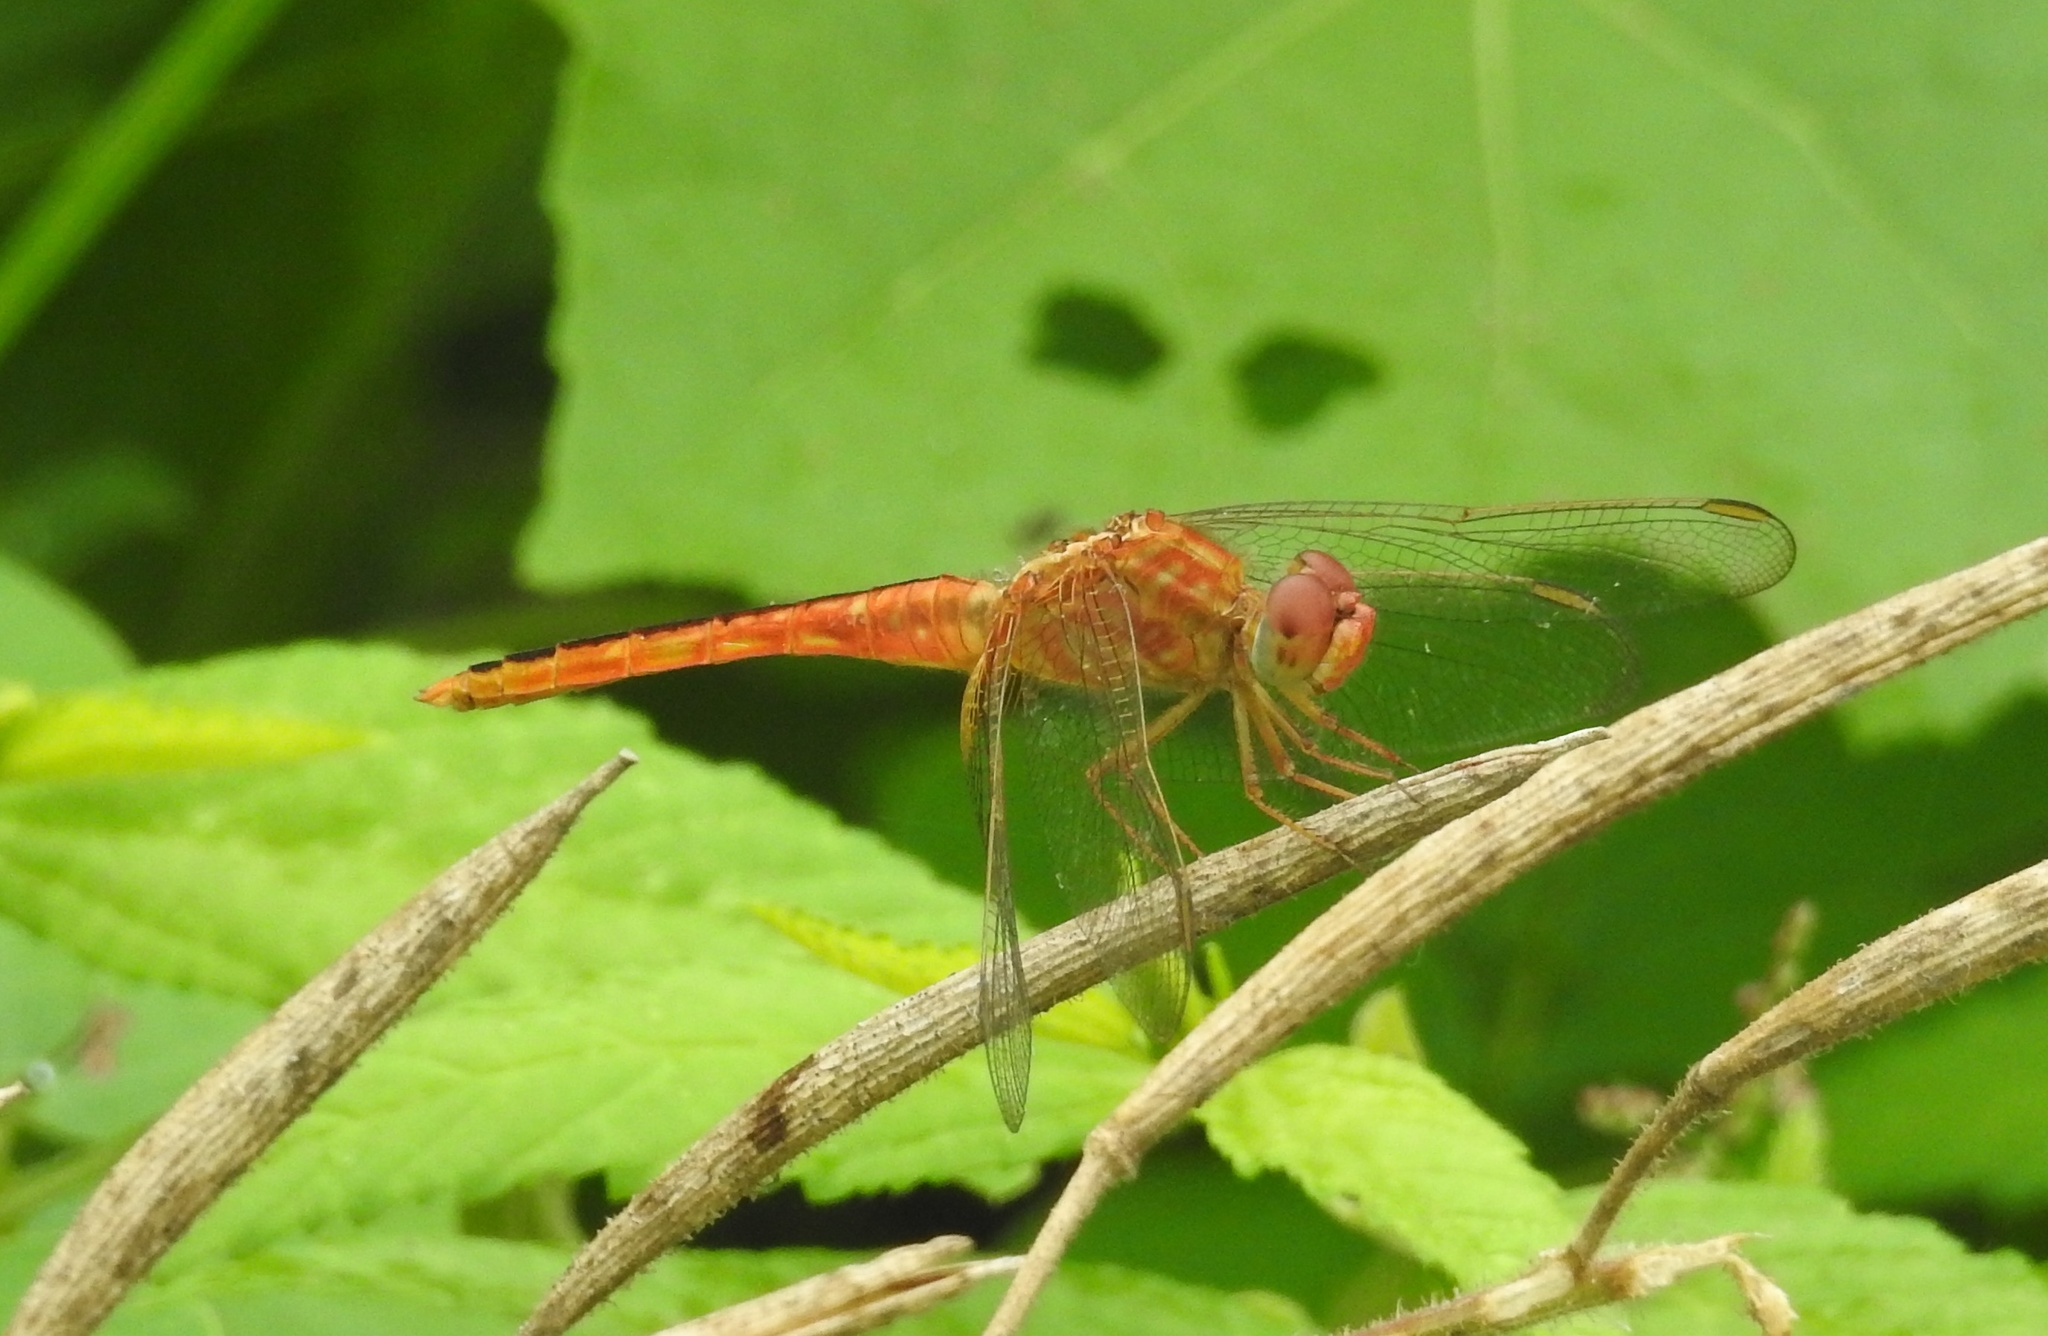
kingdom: Animalia
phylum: Arthropoda
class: Insecta
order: Odonata
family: Libellulidae
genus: Crocothemis
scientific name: Crocothemis servilia
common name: Scarlet skimmer
